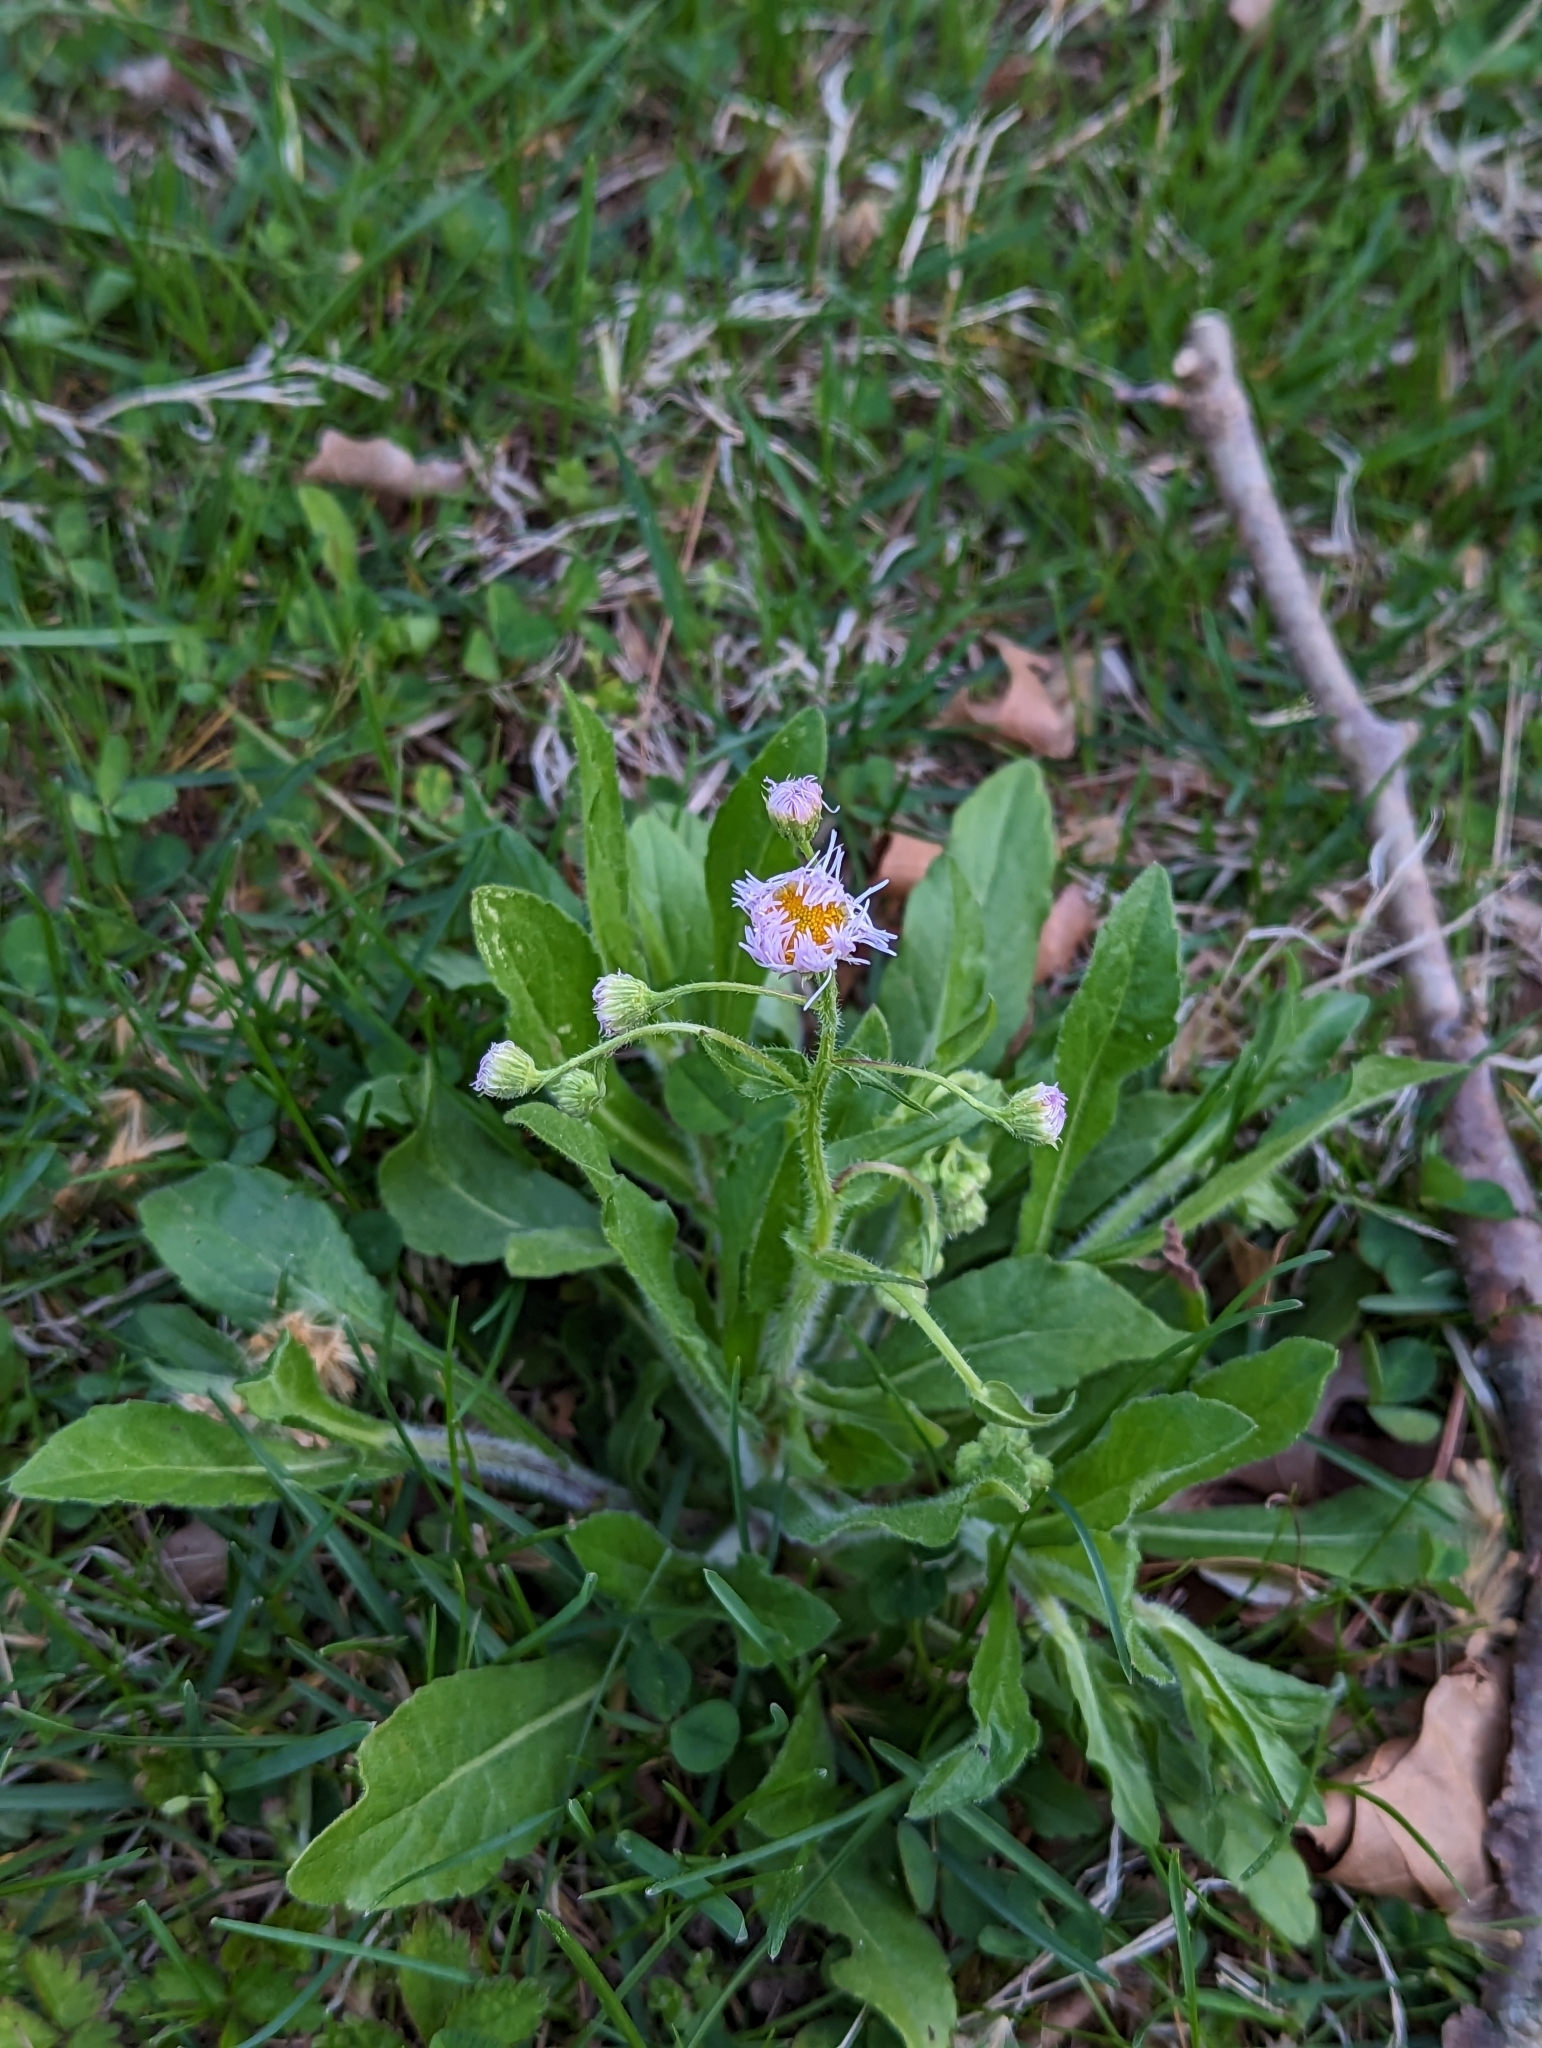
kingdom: Plantae
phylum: Tracheophyta
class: Magnoliopsida
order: Asterales
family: Asteraceae
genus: Erigeron
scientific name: Erigeron philadelphicus
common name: Robin's-plantain
